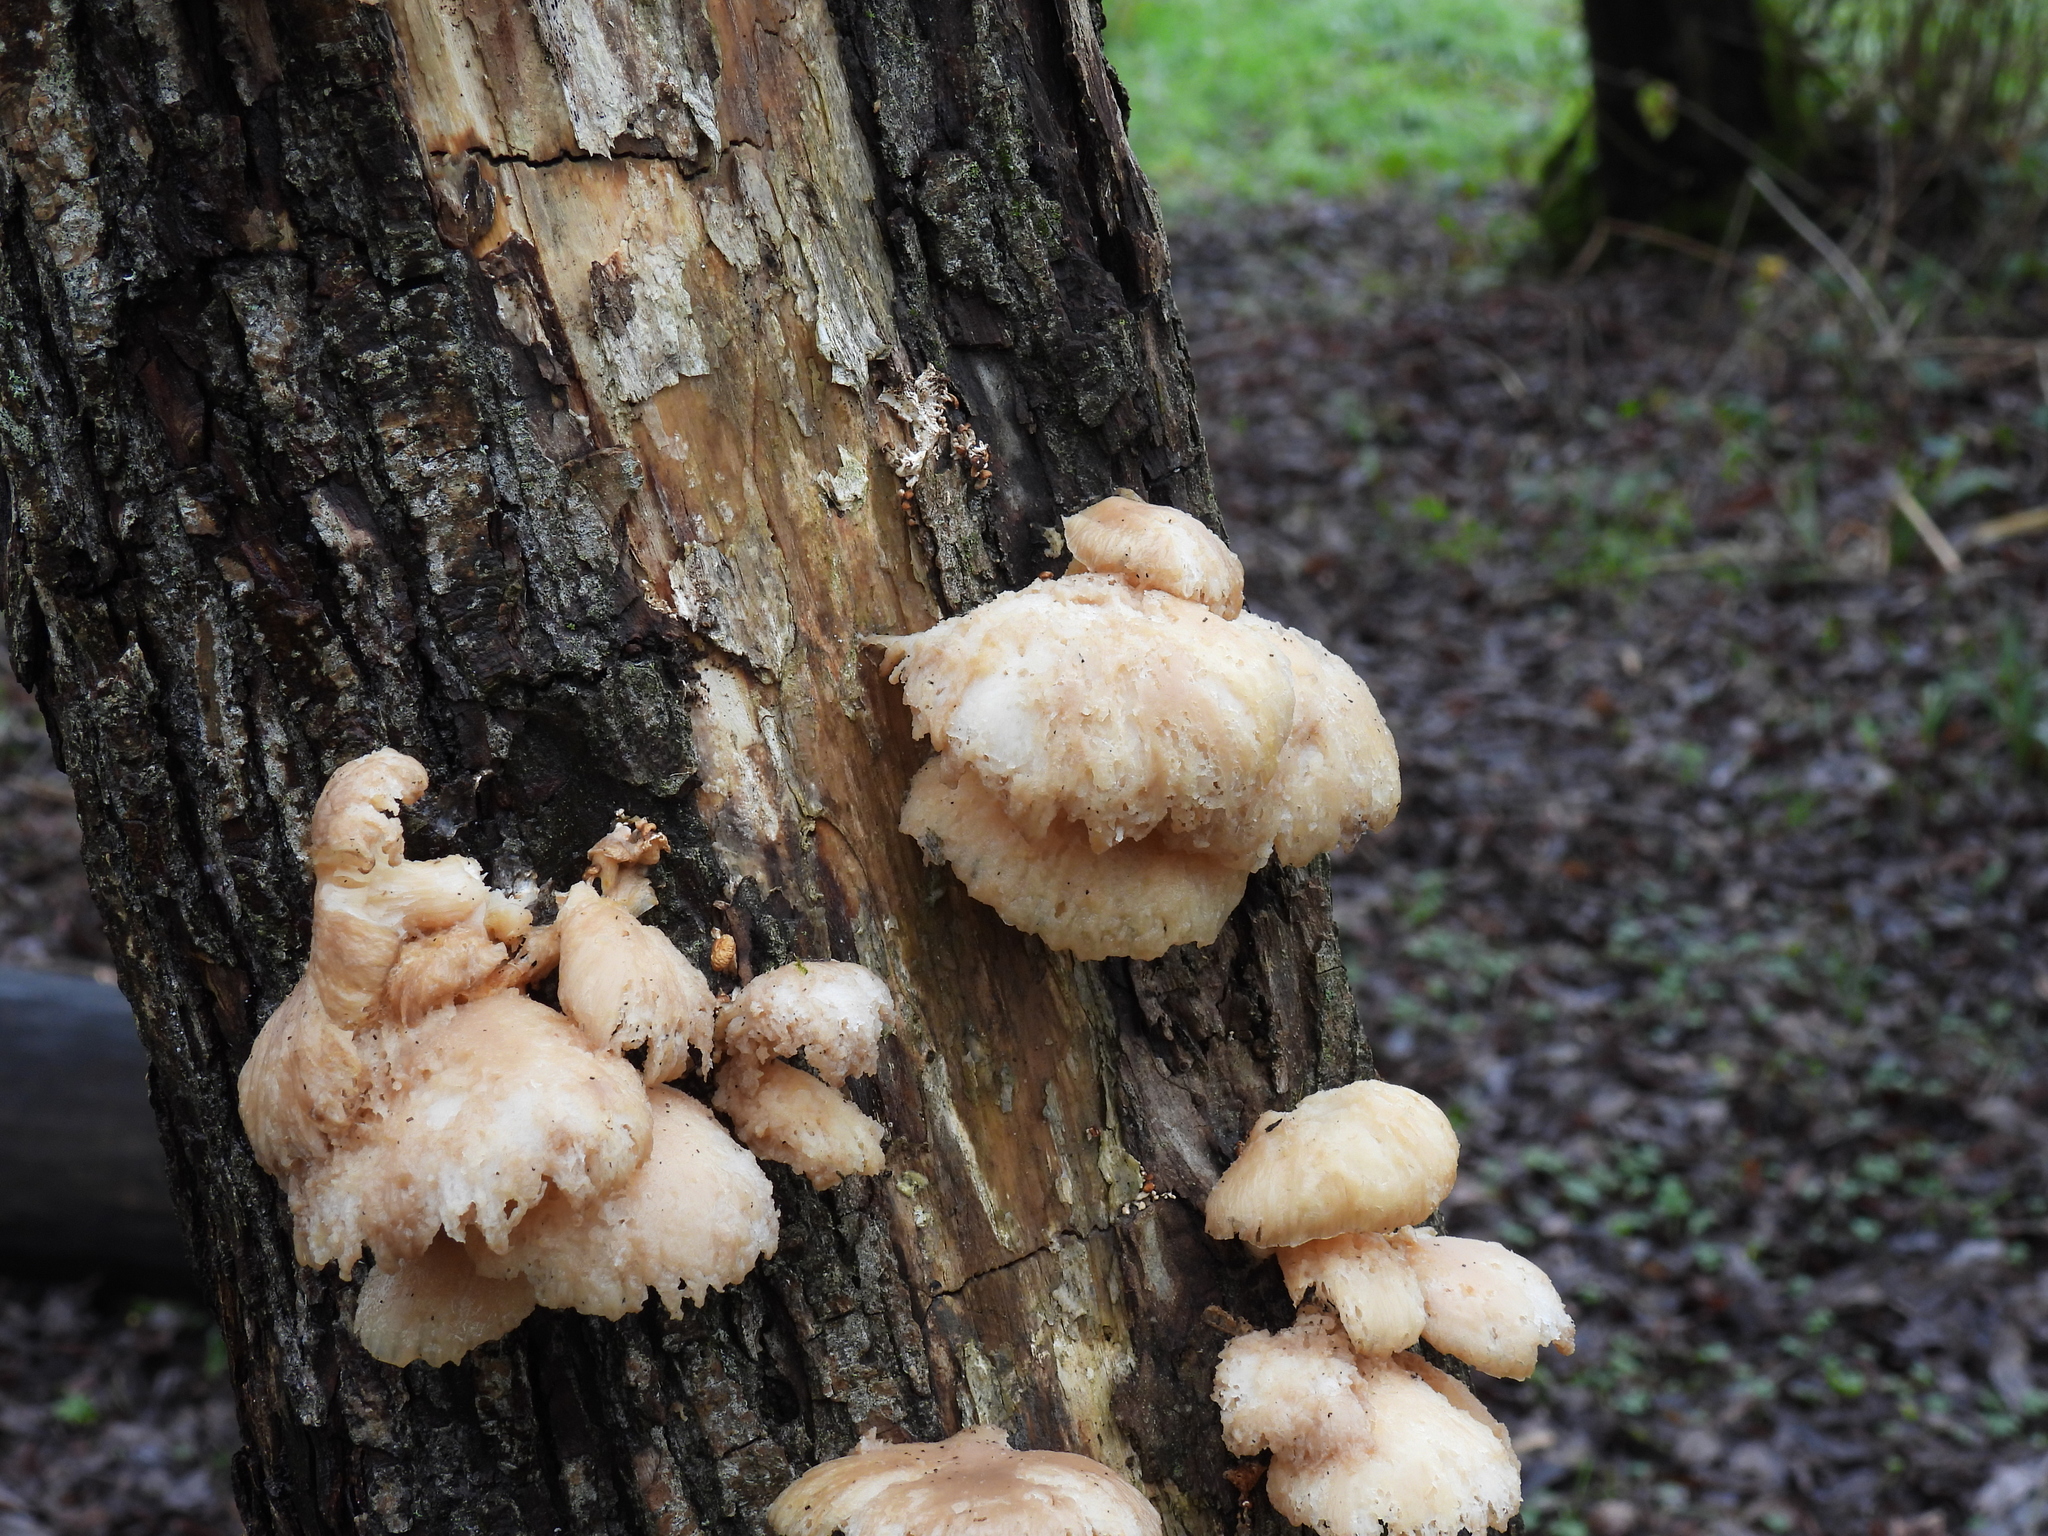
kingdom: Fungi
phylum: Basidiomycota
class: Agaricomycetes
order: Agaricales
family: Pleurotaceae
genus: Pleurotus
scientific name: Pleurotus pulmonarius
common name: Pale oyster
